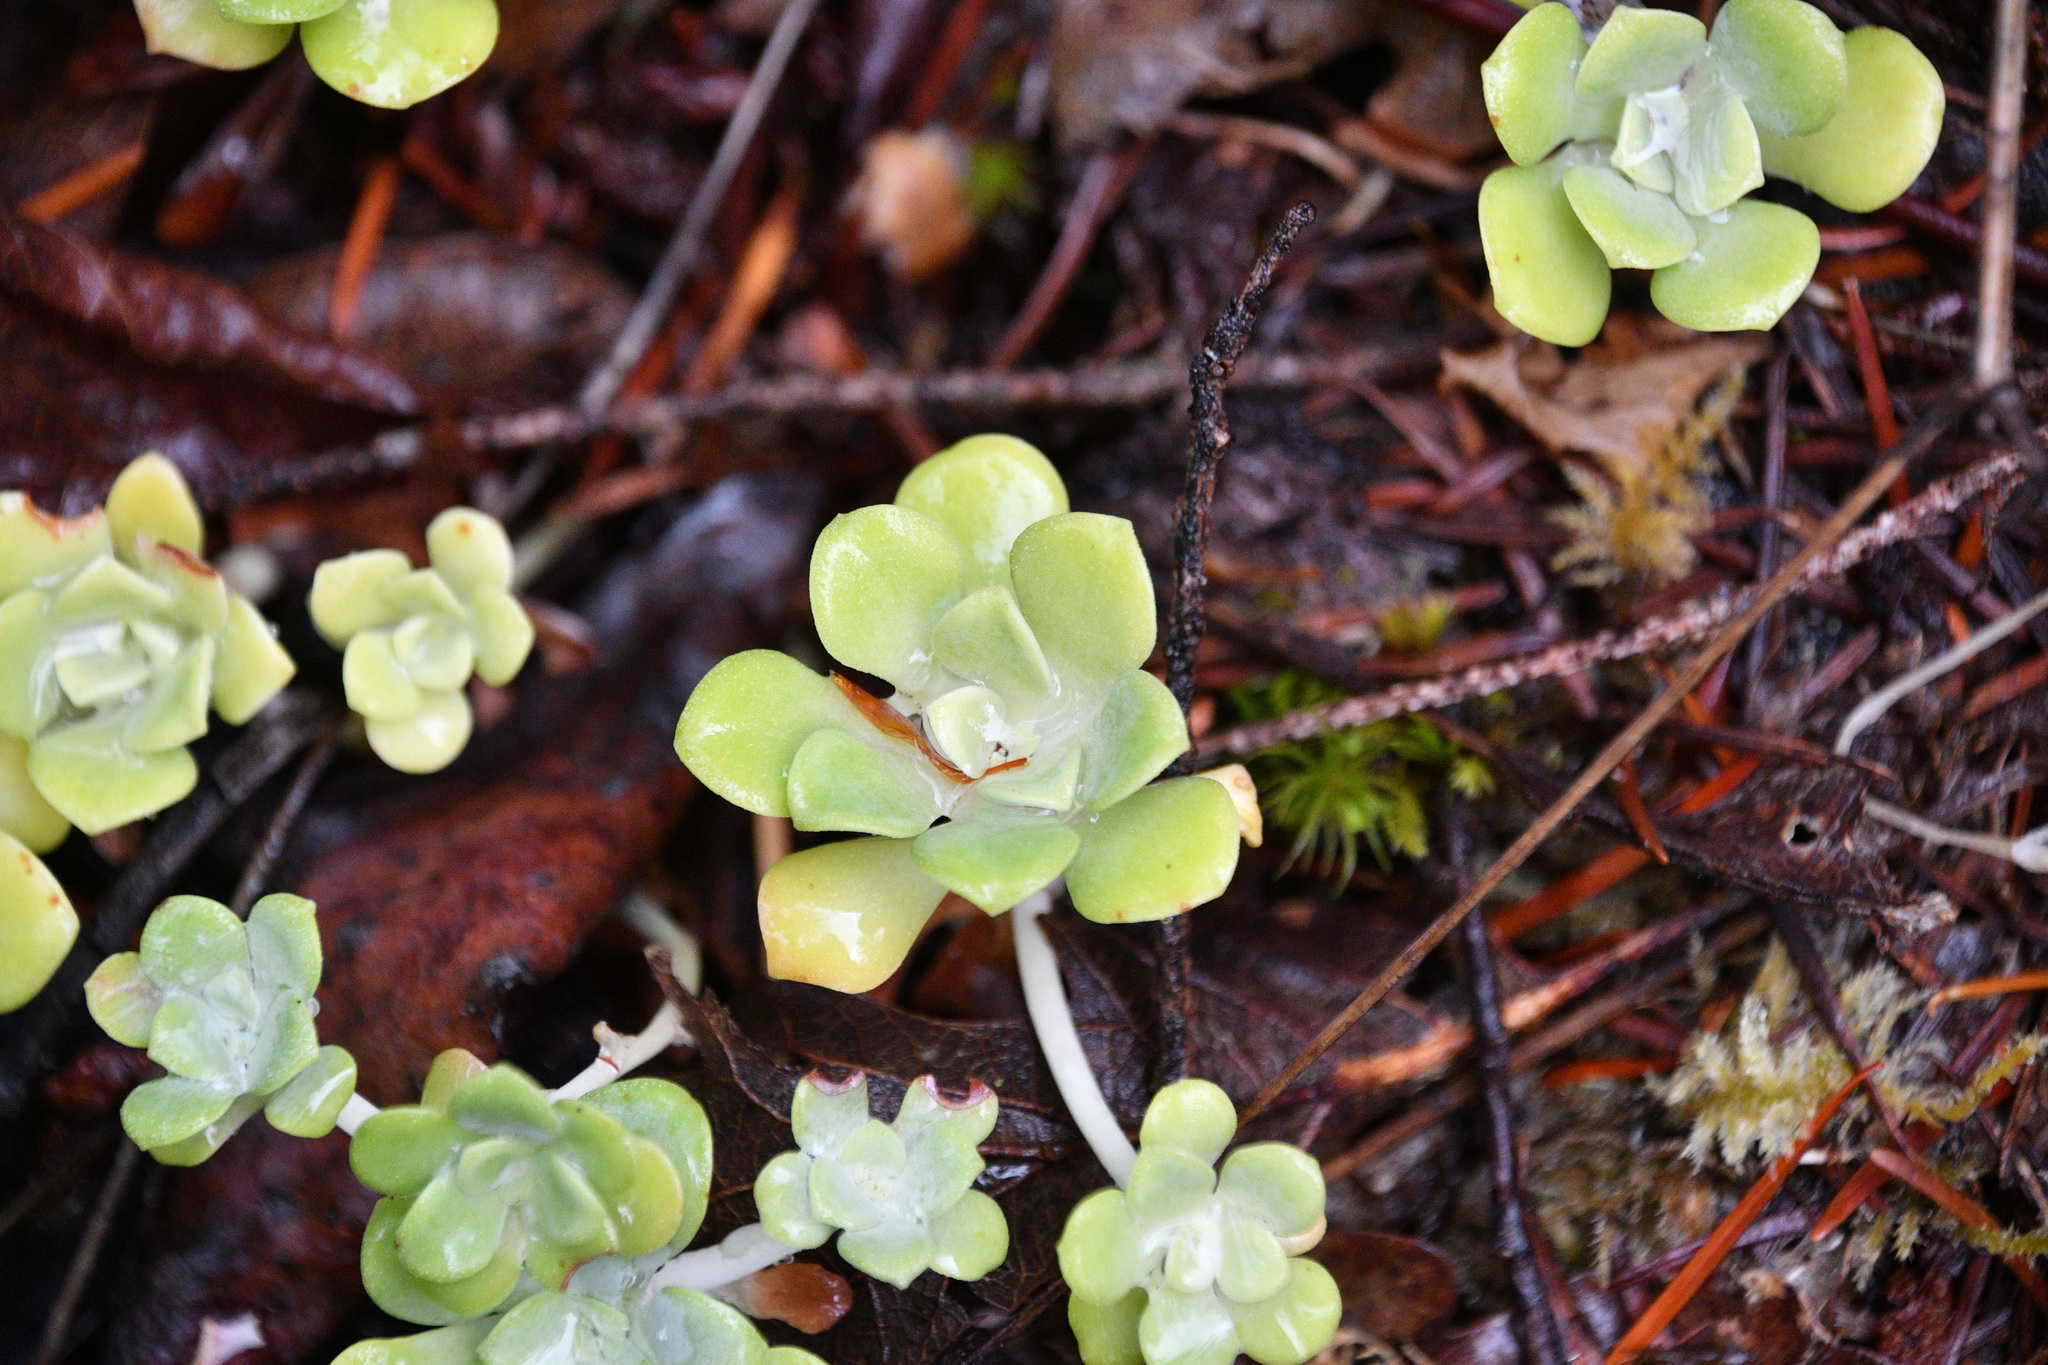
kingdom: Plantae
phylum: Tracheophyta
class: Magnoliopsida
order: Saxifragales
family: Crassulaceae
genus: Sedum
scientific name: Sedum spathulifolium
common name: Colorado stonecrop
